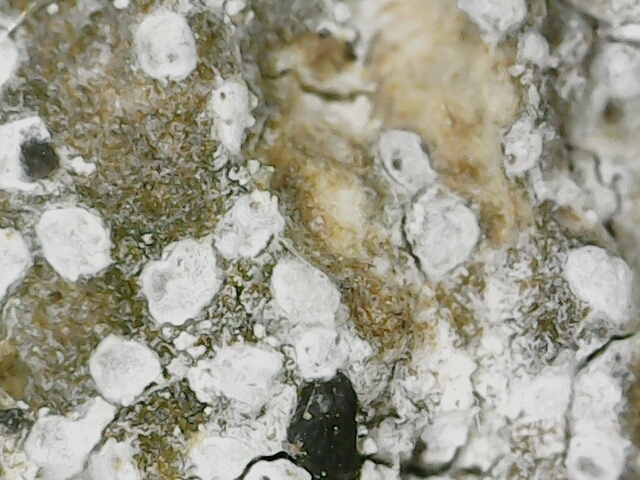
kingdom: Fungi
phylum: Ascomycota
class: Arthoniomycetes
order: Arthoniales
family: Arthoniaceae
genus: Arthonia
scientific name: Arthonia arthonioides
